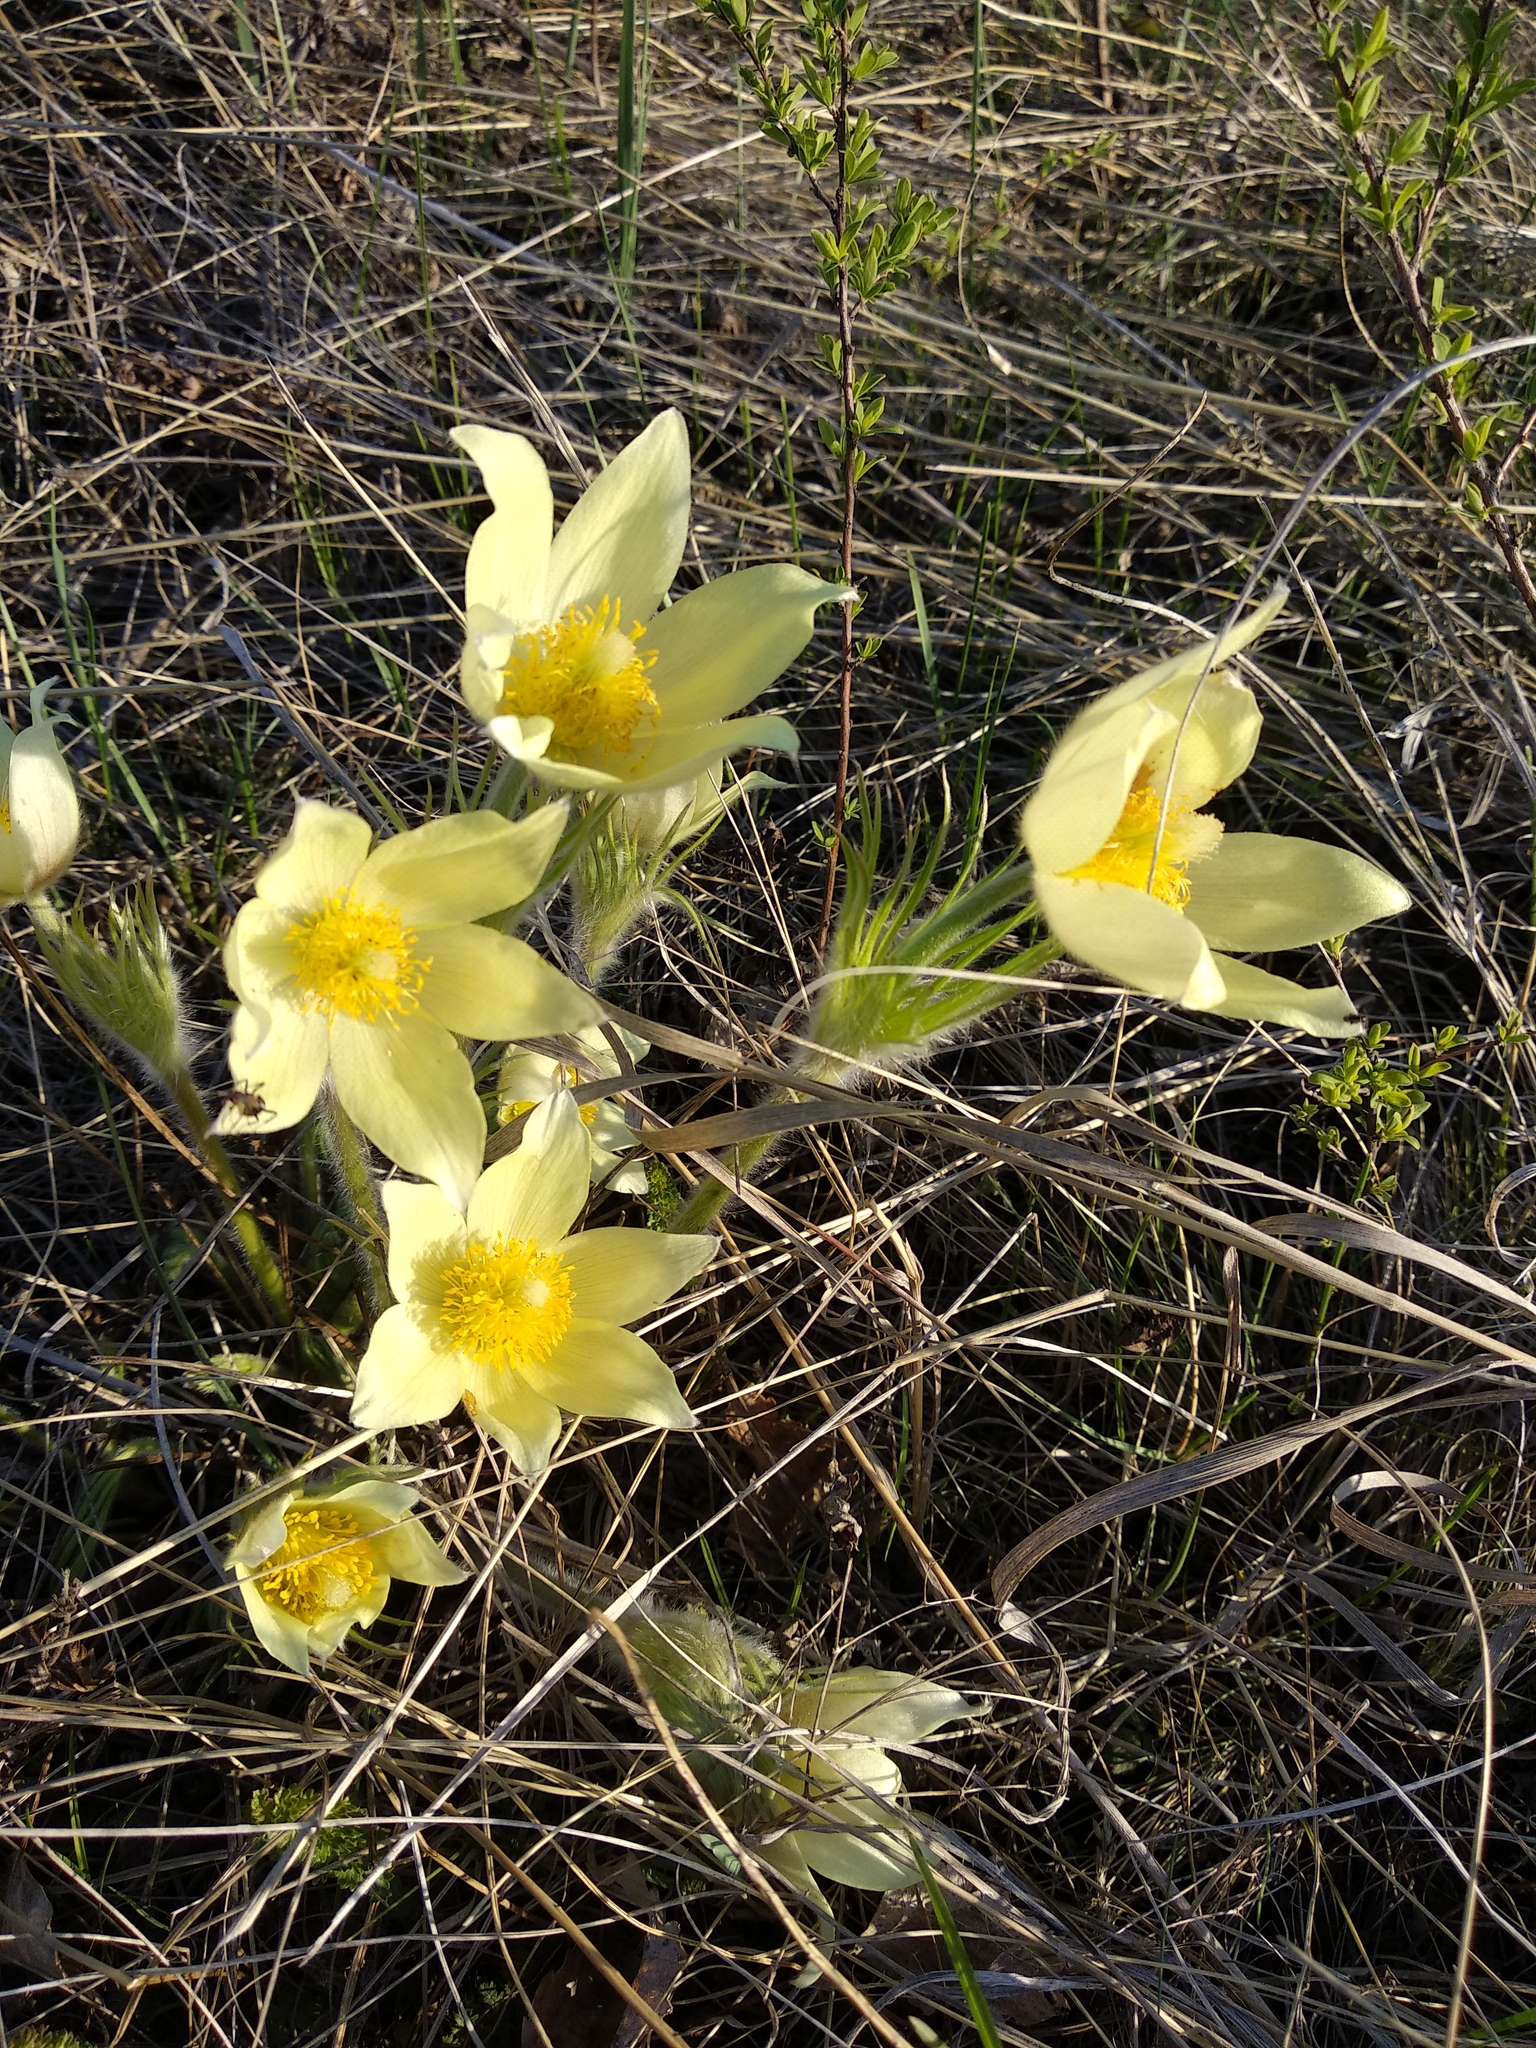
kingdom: Plantae
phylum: Tracheophyta
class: Magnoliopsida
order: Ranunculales
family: Ranunculaceae
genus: Pulsatilla
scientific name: Pulsatilla patens
